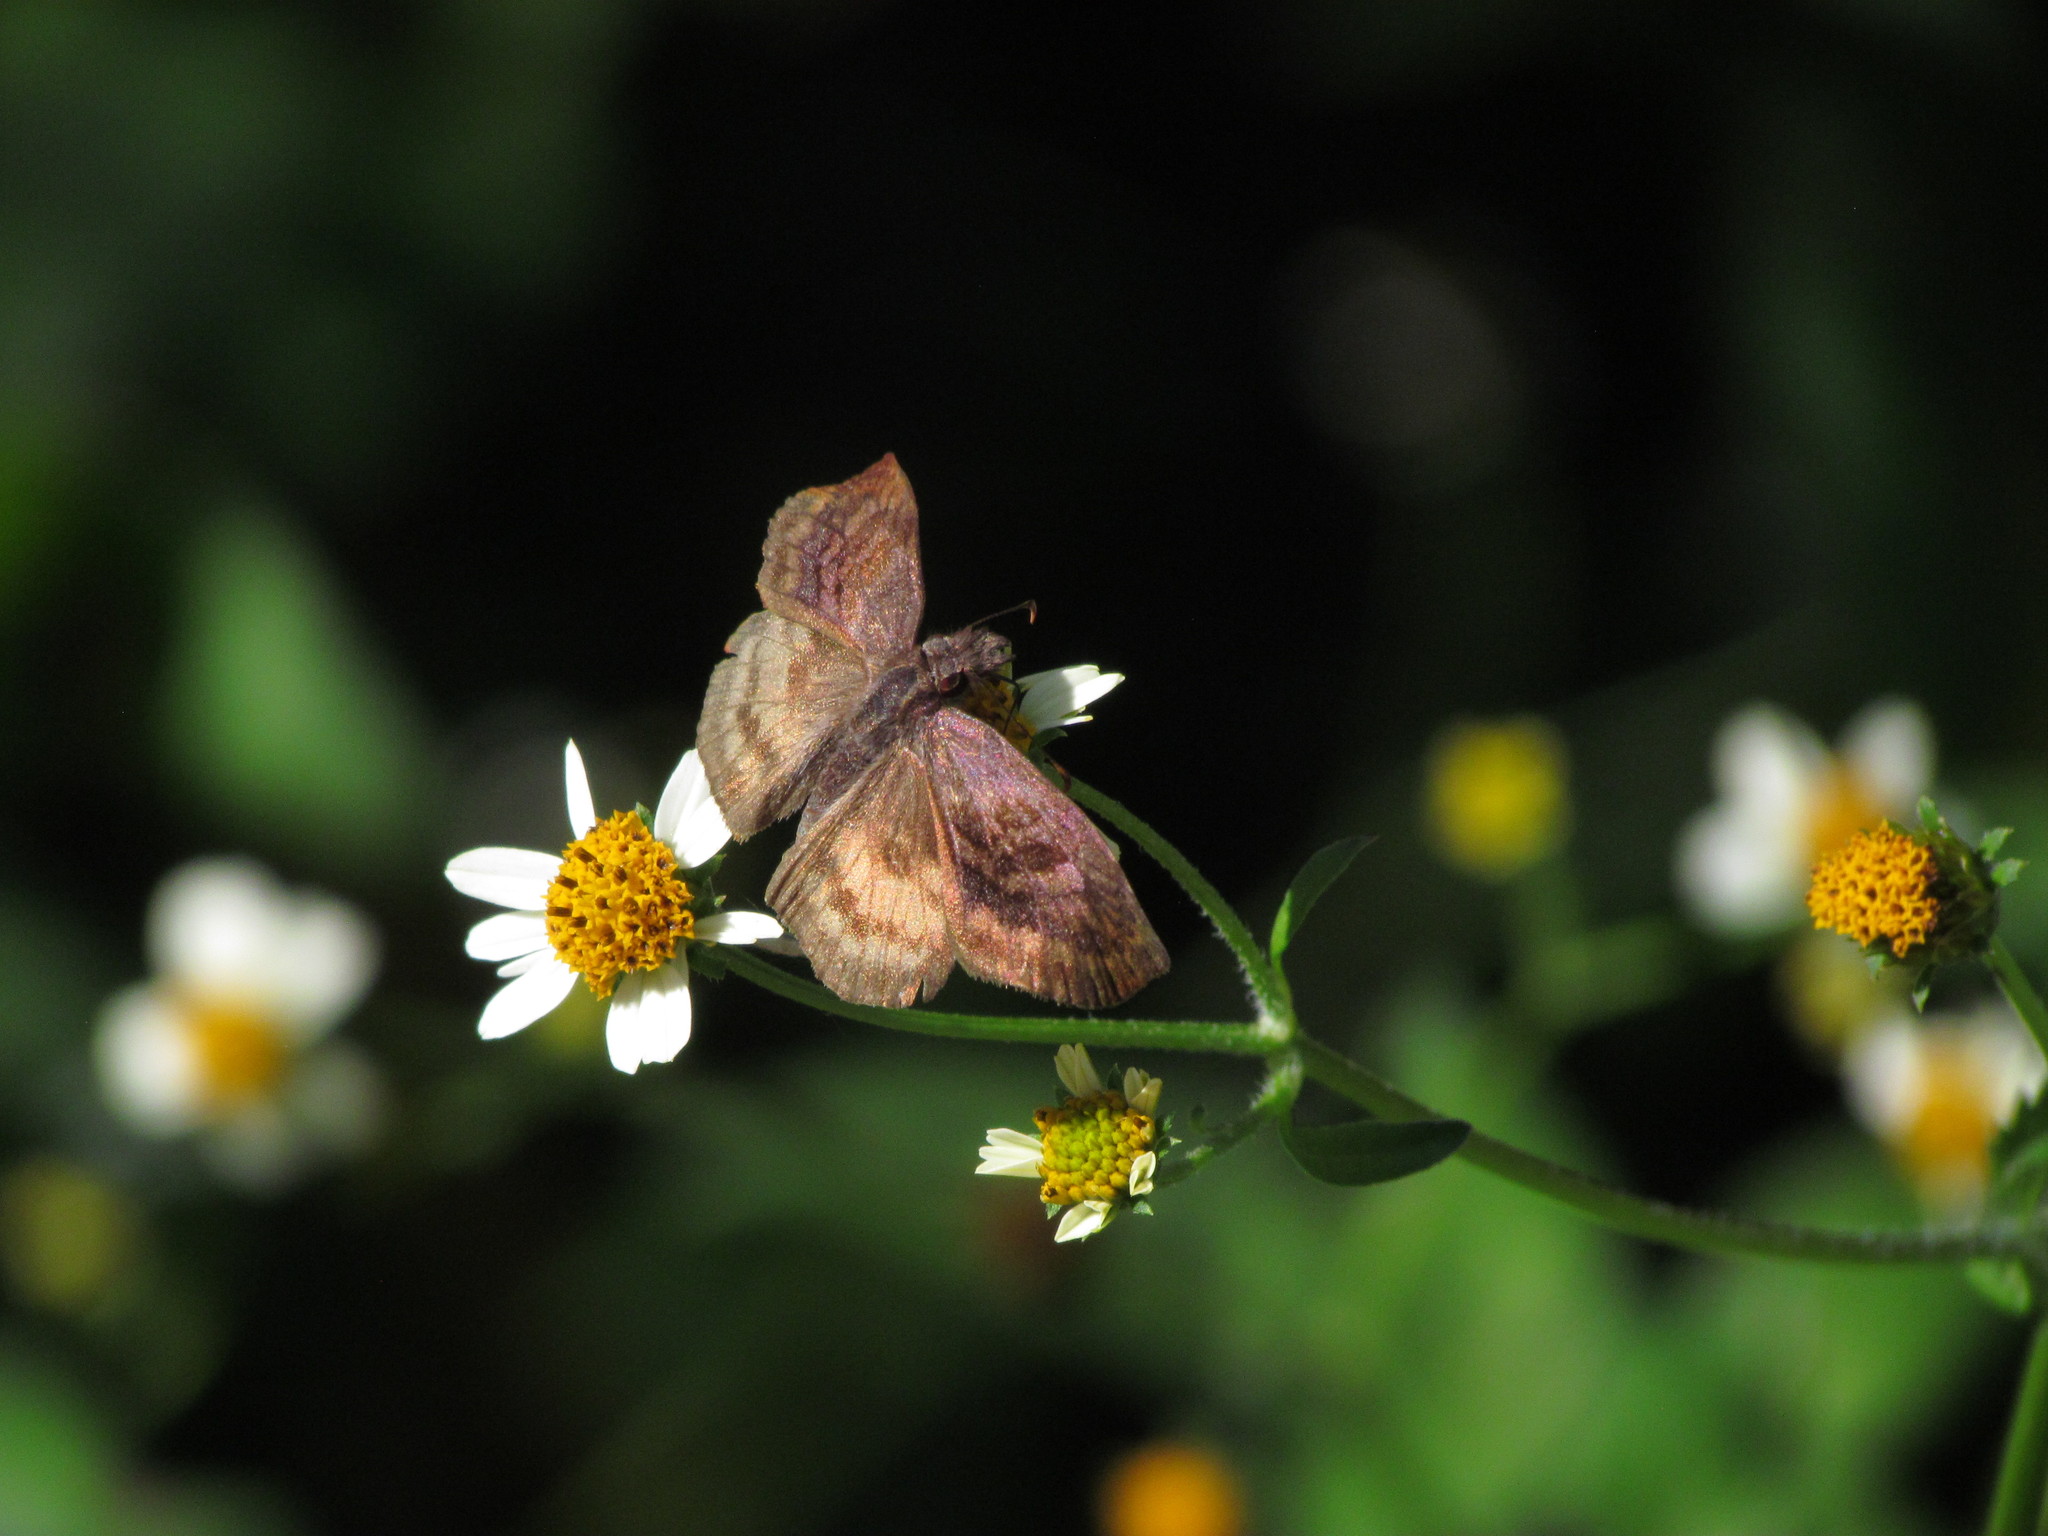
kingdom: Animalia
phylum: Arthropoda
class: Insecta
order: Lepidoptera
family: Hesperiidae
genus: Theagenes
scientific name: Theagenes dichrous
